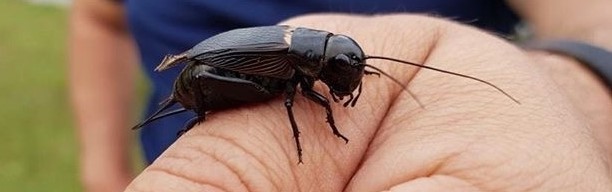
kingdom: Animalia
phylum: Arthropoda
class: Insecta
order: Orthoptera
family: Gryllidae
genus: Gryllus
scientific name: Gryllus campestris
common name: Field cricket
